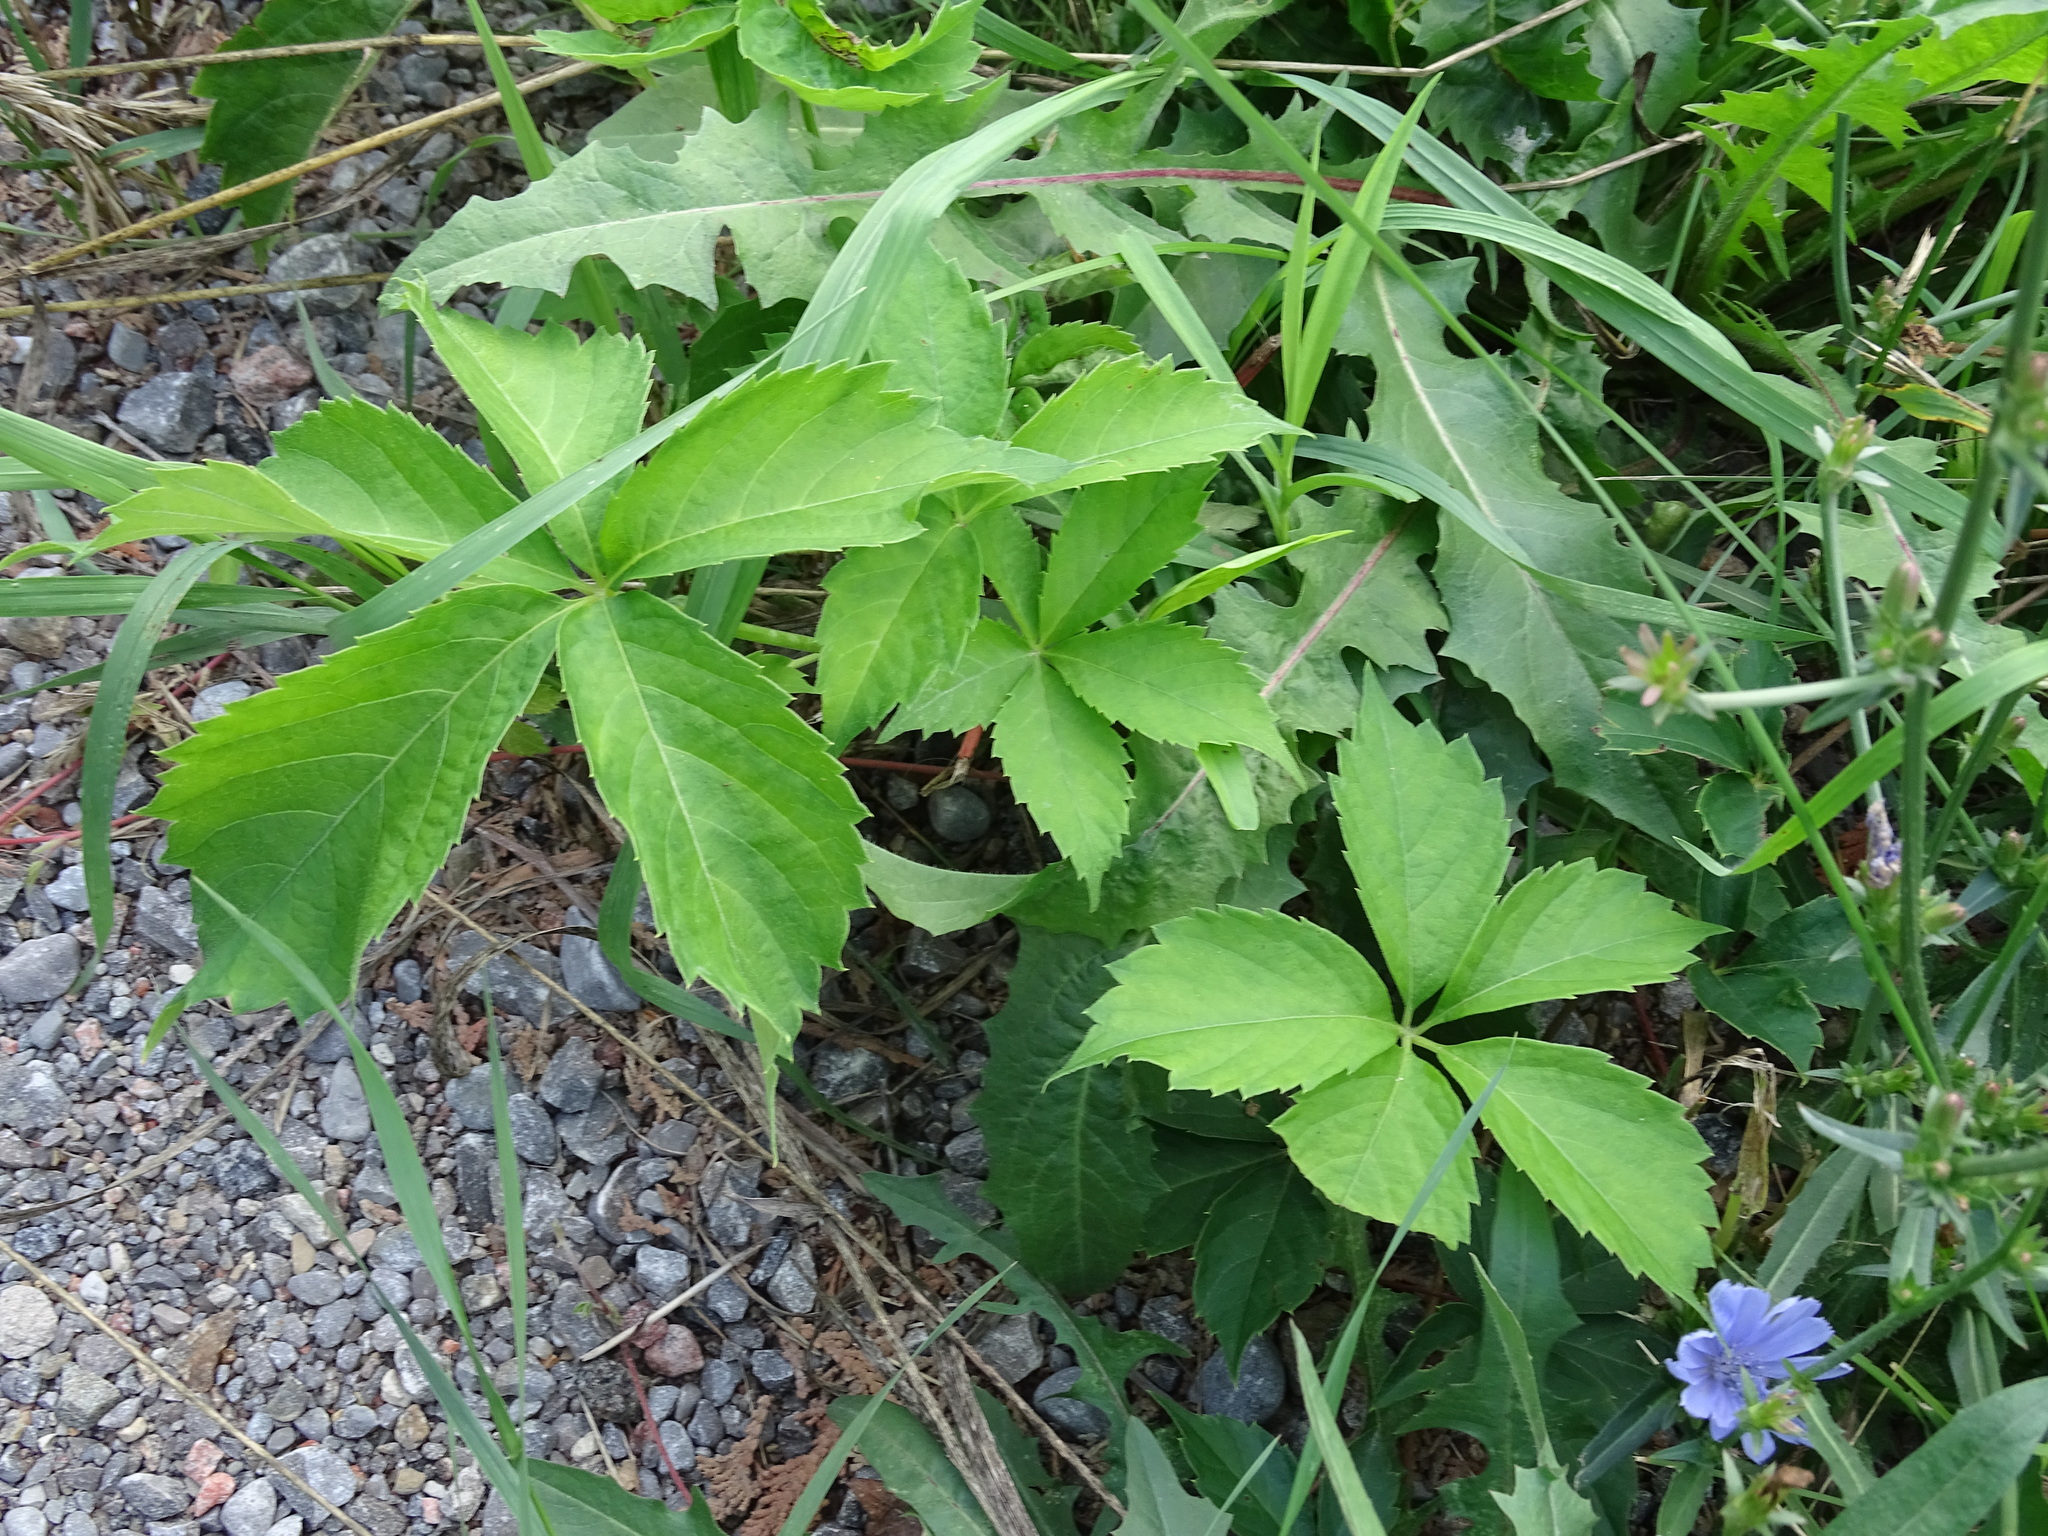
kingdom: Plantae
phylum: Tracheophyta
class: Magnoliopsida
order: Vitales
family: Vitaceae
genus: Parthenocissus
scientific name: Parthenocissus inserta
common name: False virginia-creeper
